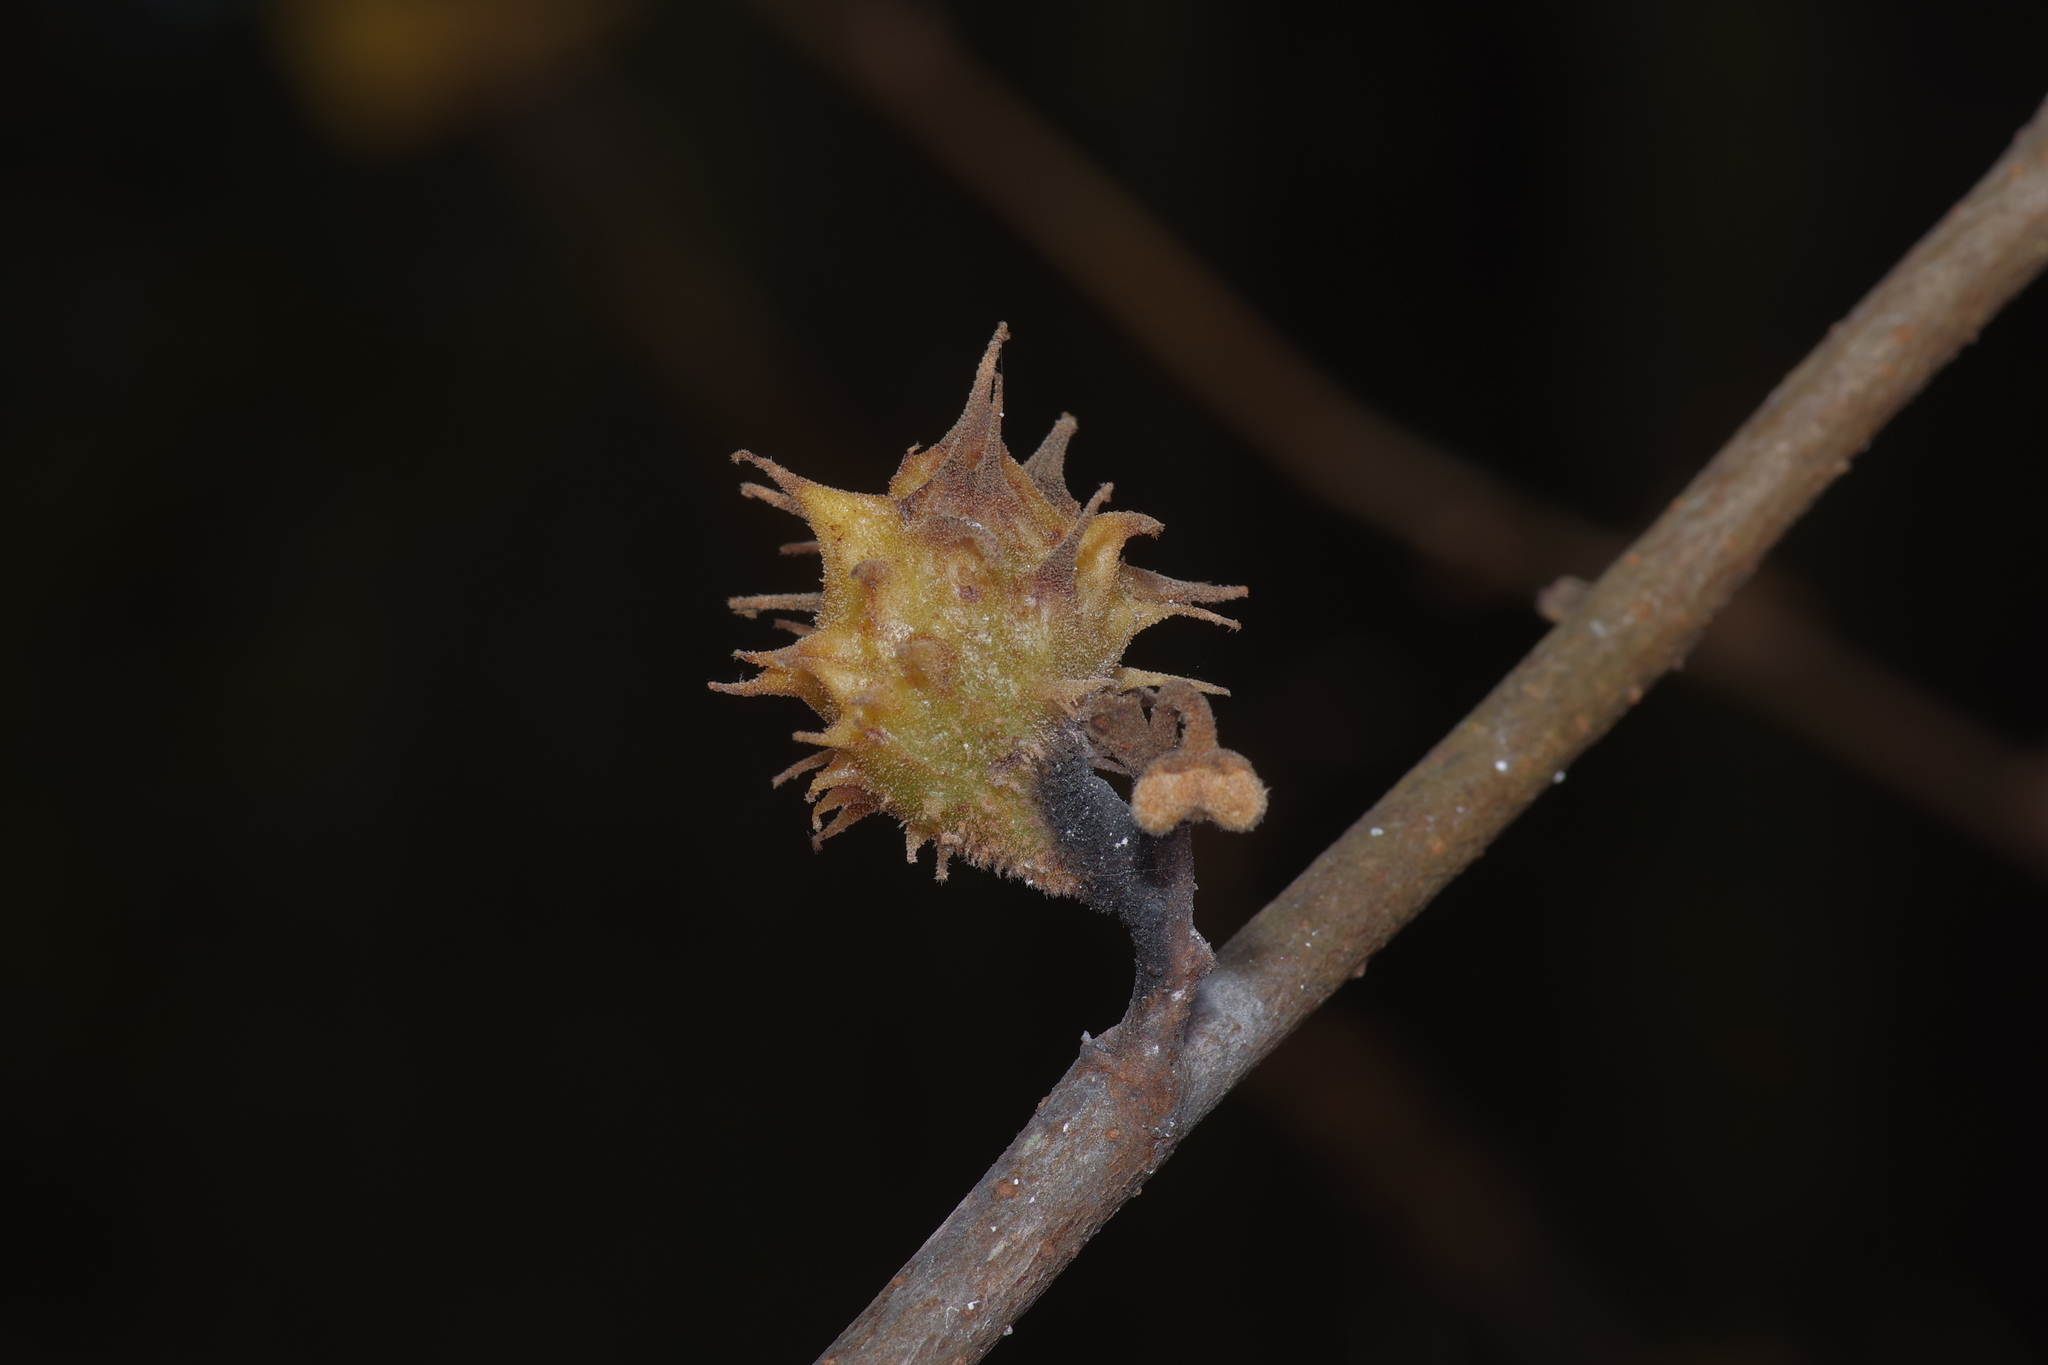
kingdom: Animalia
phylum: Arthropoda
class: Insecta
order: Hemiptera
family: Aphididae
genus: Hamamelistes
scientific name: Hamamelistes spinosus
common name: Witch hazel gall aphid
